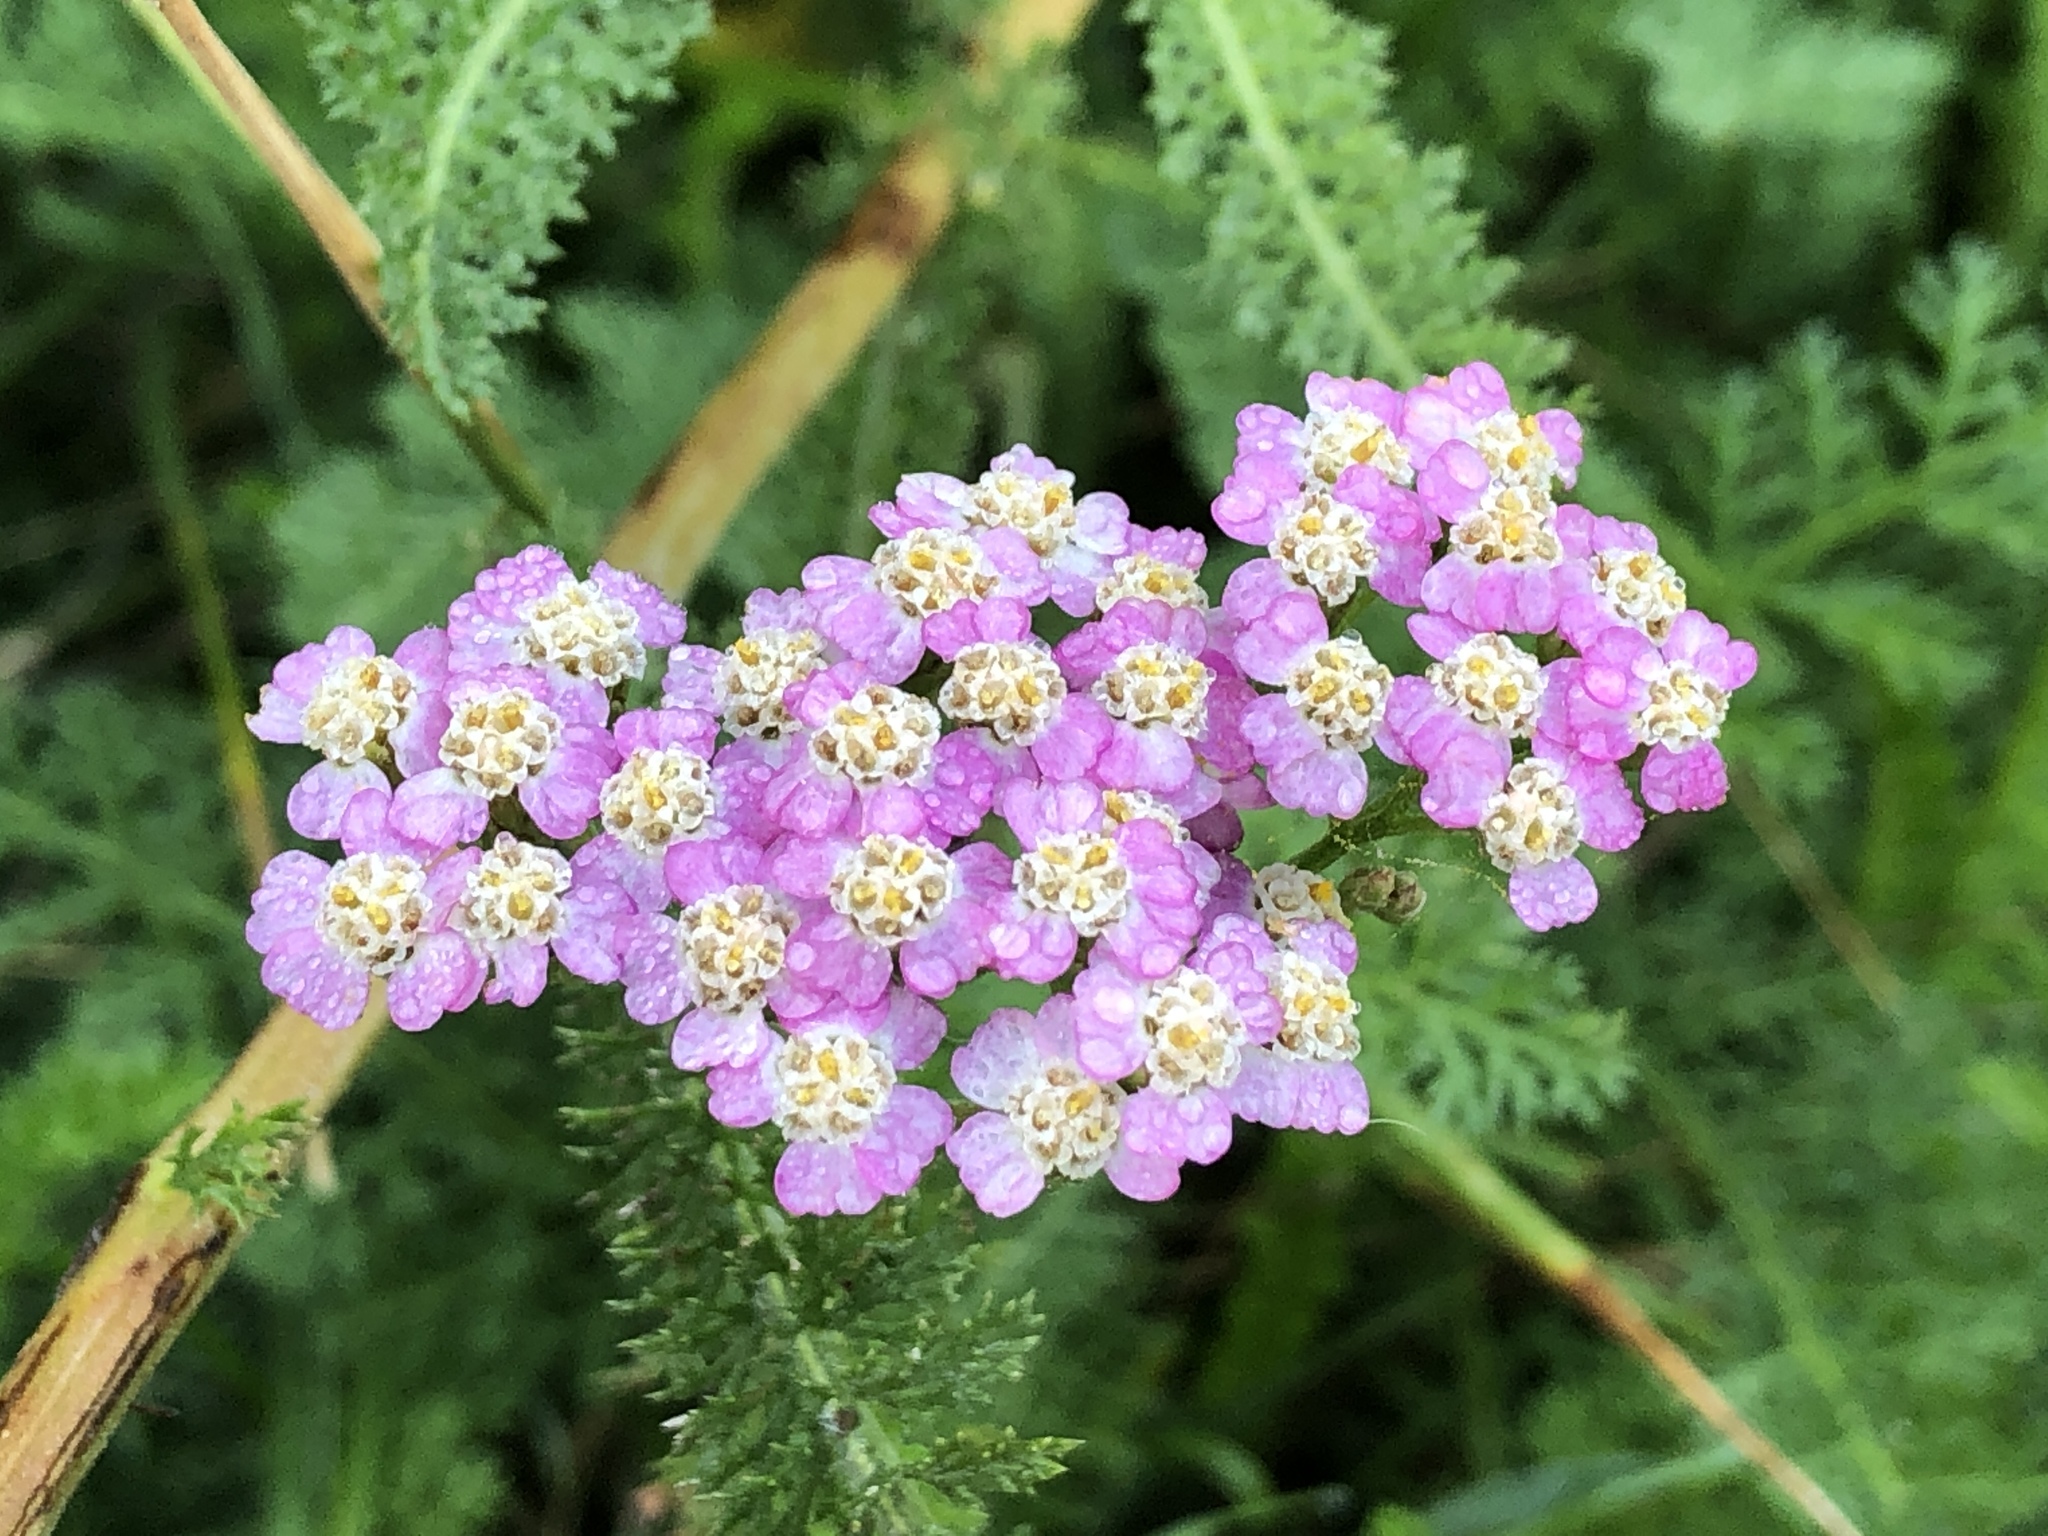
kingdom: Plantae
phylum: Tracheophyta
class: Magnoliopsida
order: Asterales
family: Asteraceae
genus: Achillea
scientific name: Achillea millefolium
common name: Yarrow
